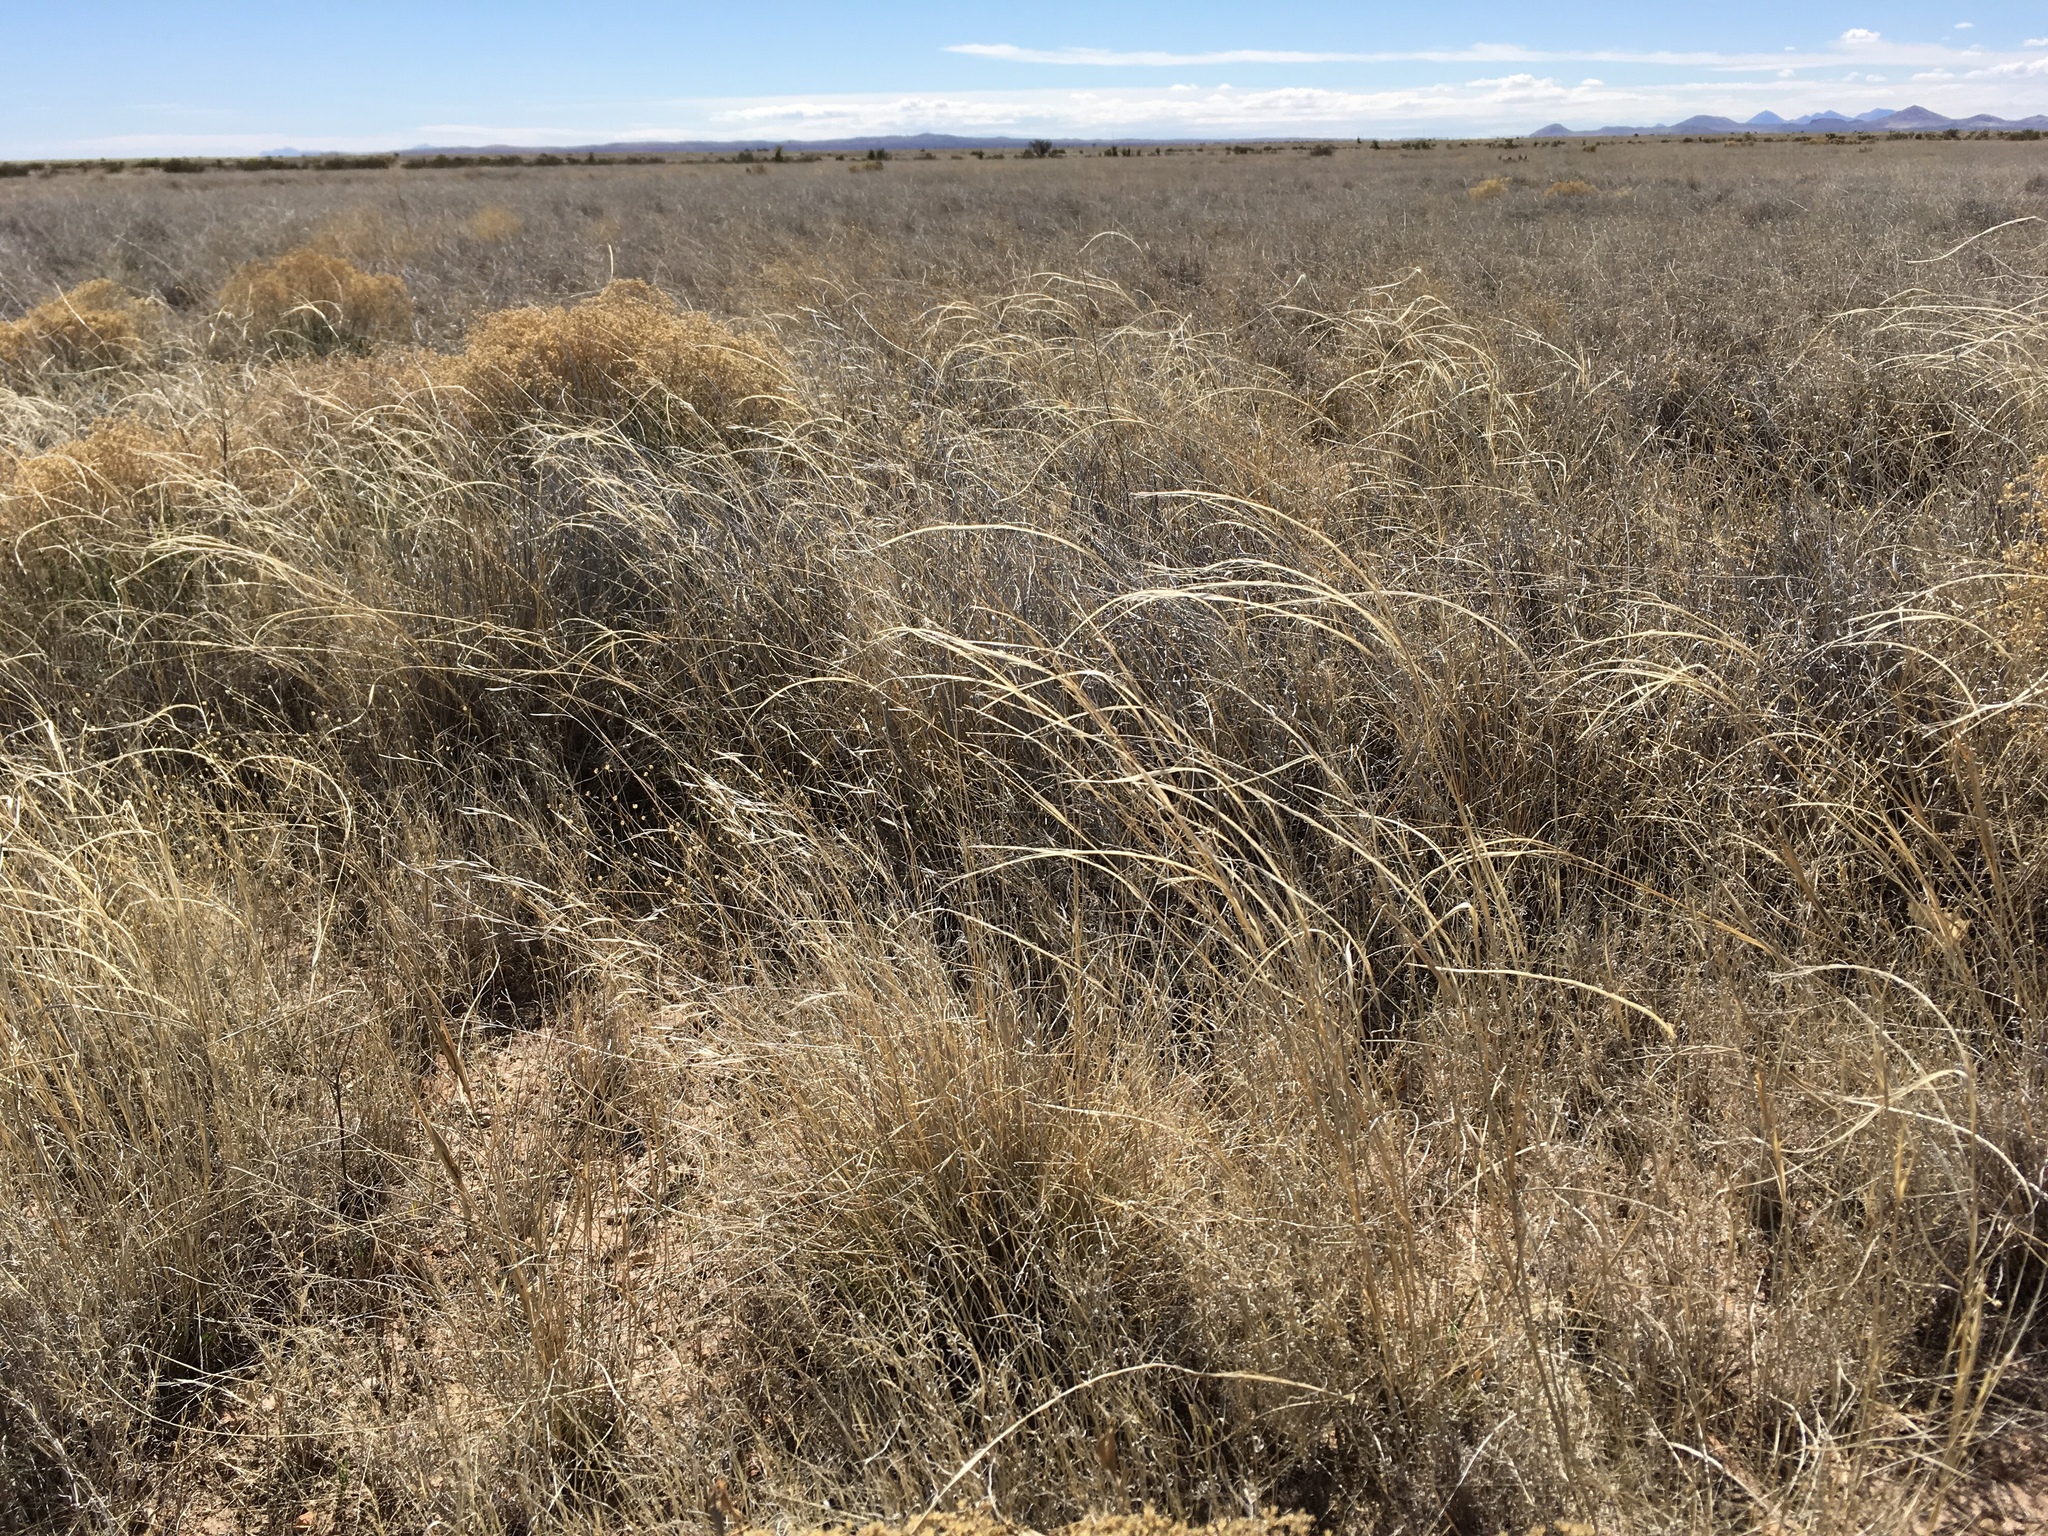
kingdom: Plantae
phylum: Tracheophyta
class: Liliopsida
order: Poales
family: Poaceae
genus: Sporobolus
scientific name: Sporobolus cryptandrus
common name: Sand dropseed
